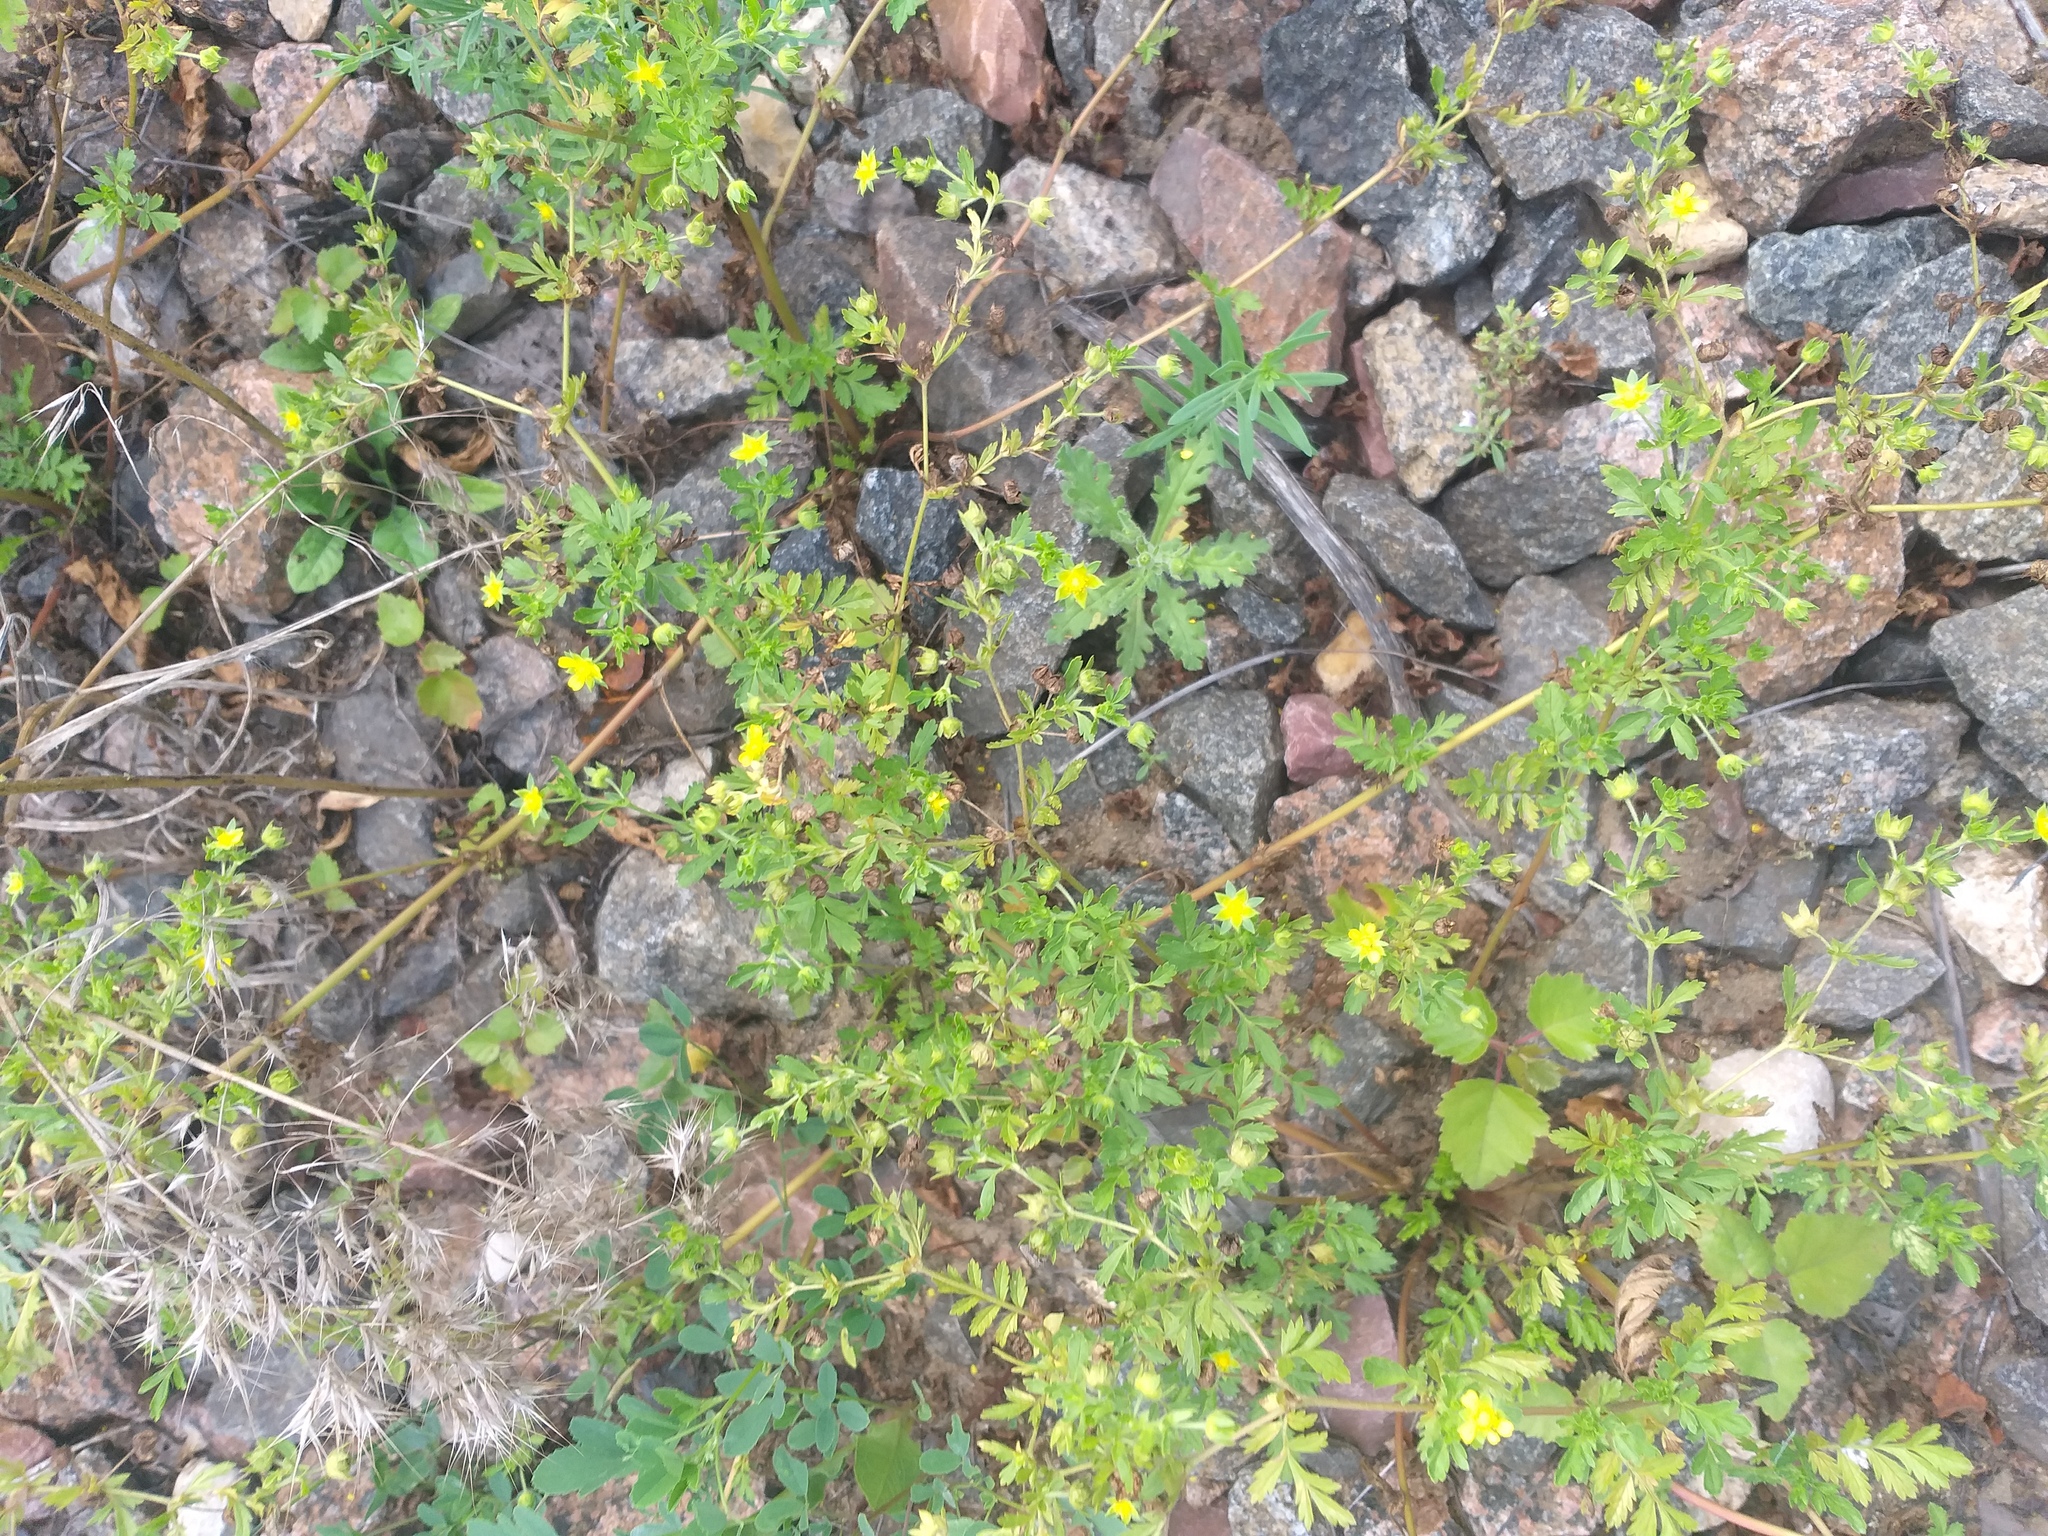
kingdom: Plantae
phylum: Tracheophyta
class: Magnoliopsida
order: Rosales
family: Rosaceae
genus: Potentilla
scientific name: Potentilla supina
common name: Prostrate cinquefoil
